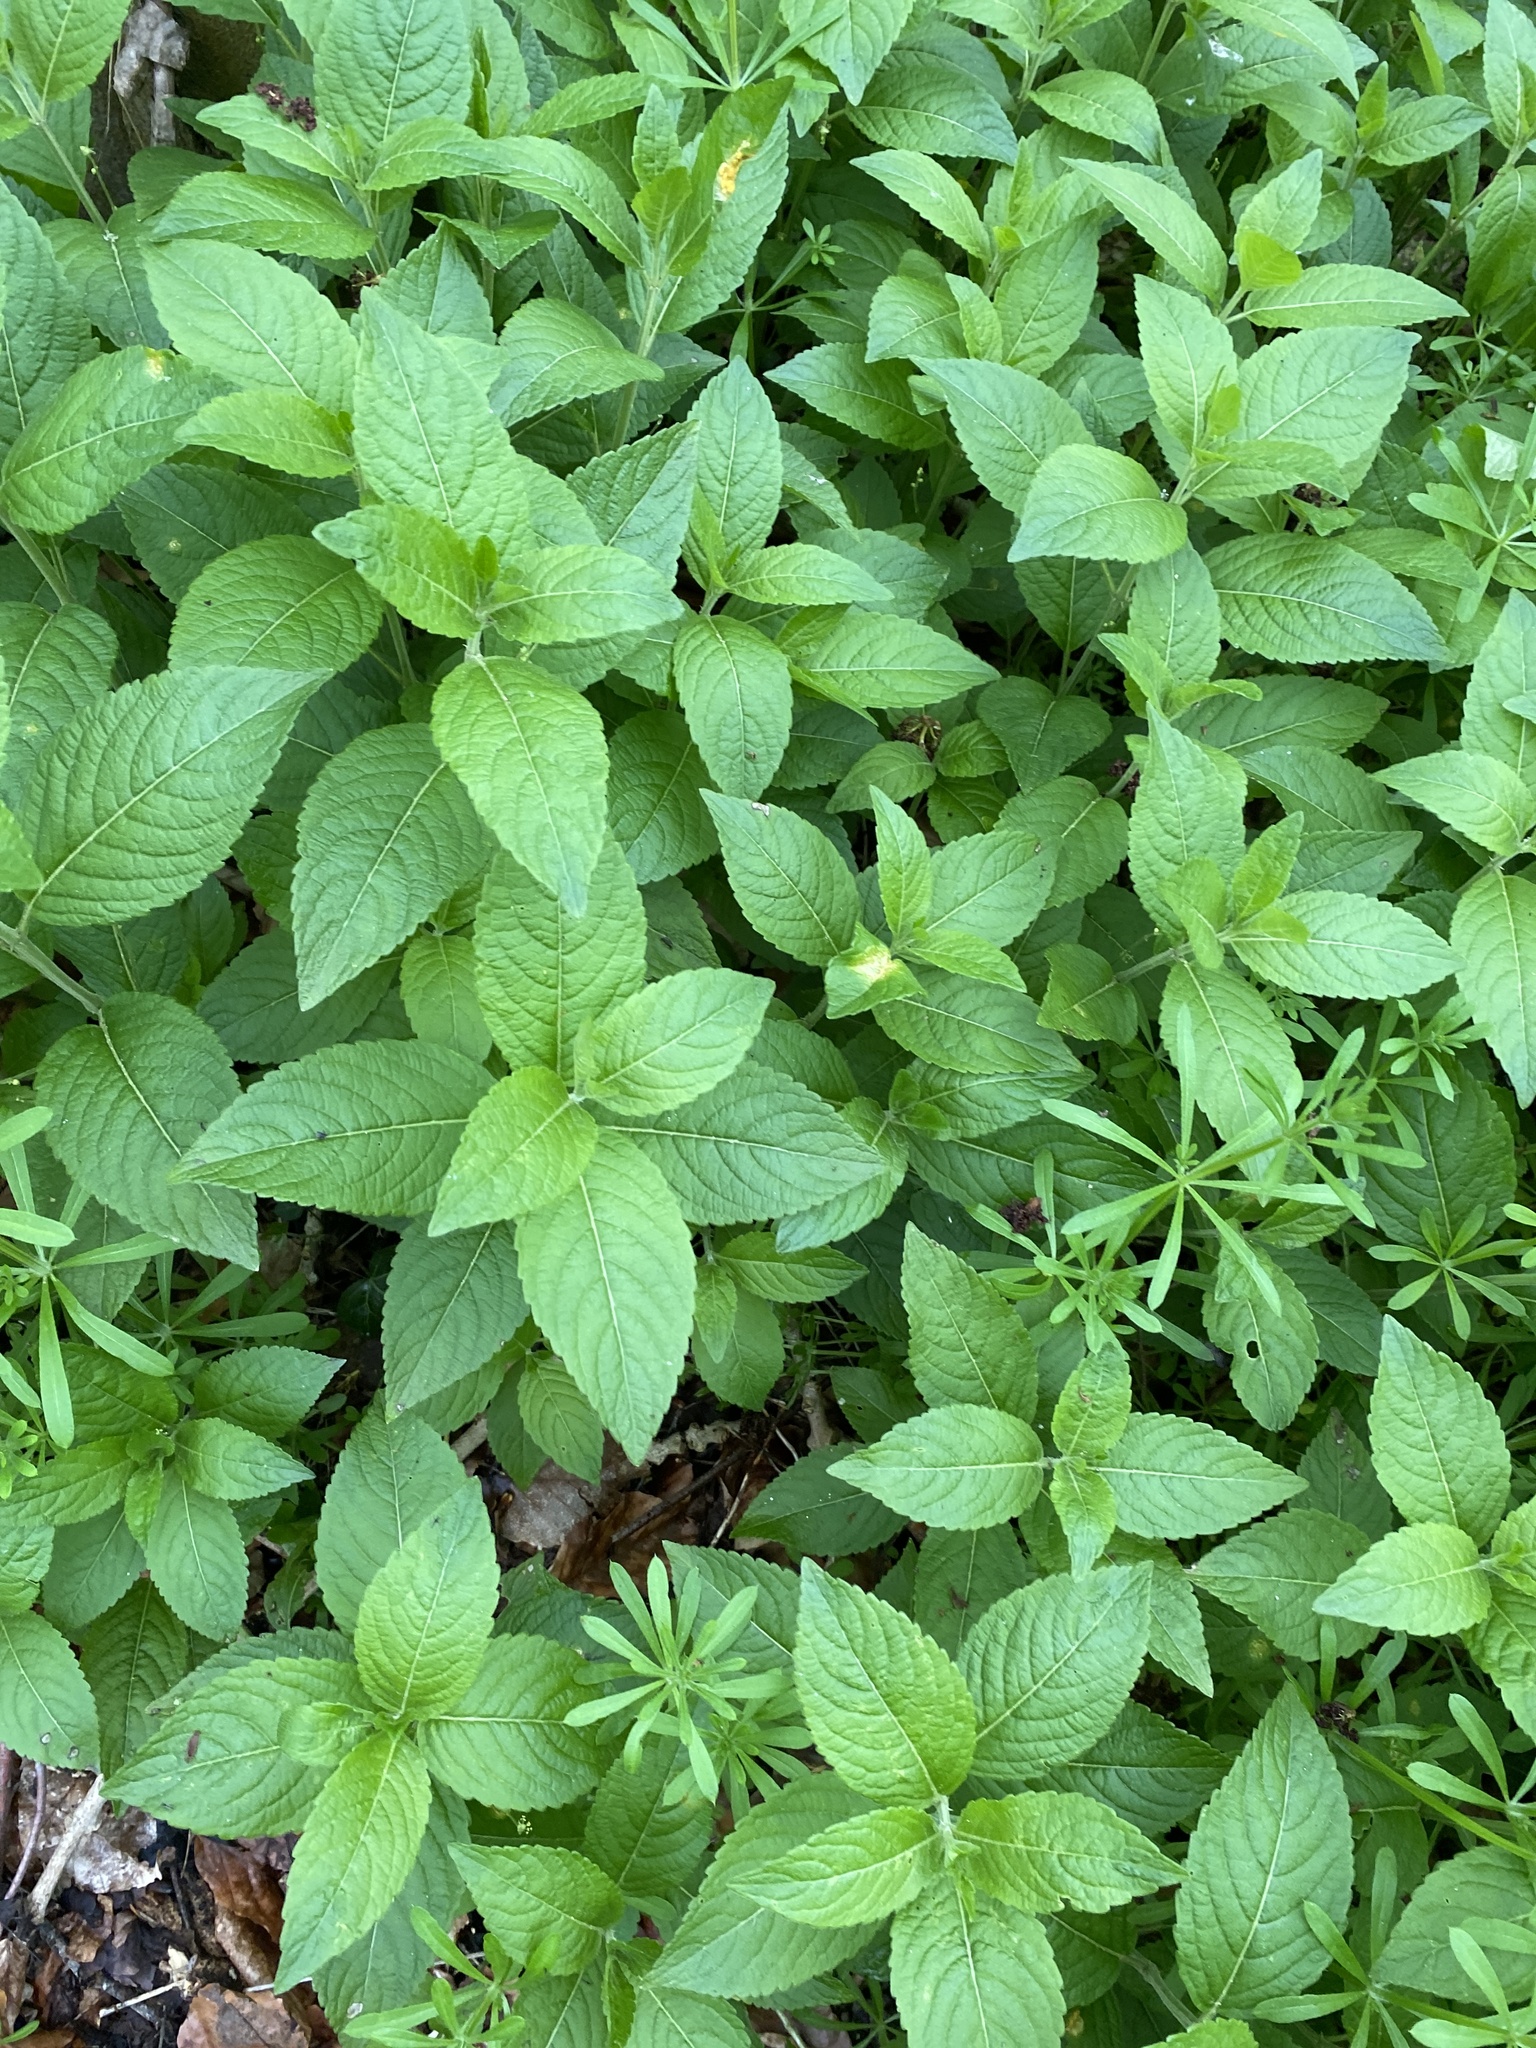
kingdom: Plantae
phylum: Tracheophyta
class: Magnoliopsida
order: Malpighiales
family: Euphorbiaceae
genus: Mercurialis
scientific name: Mercurialis perennis
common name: Dog mercury
